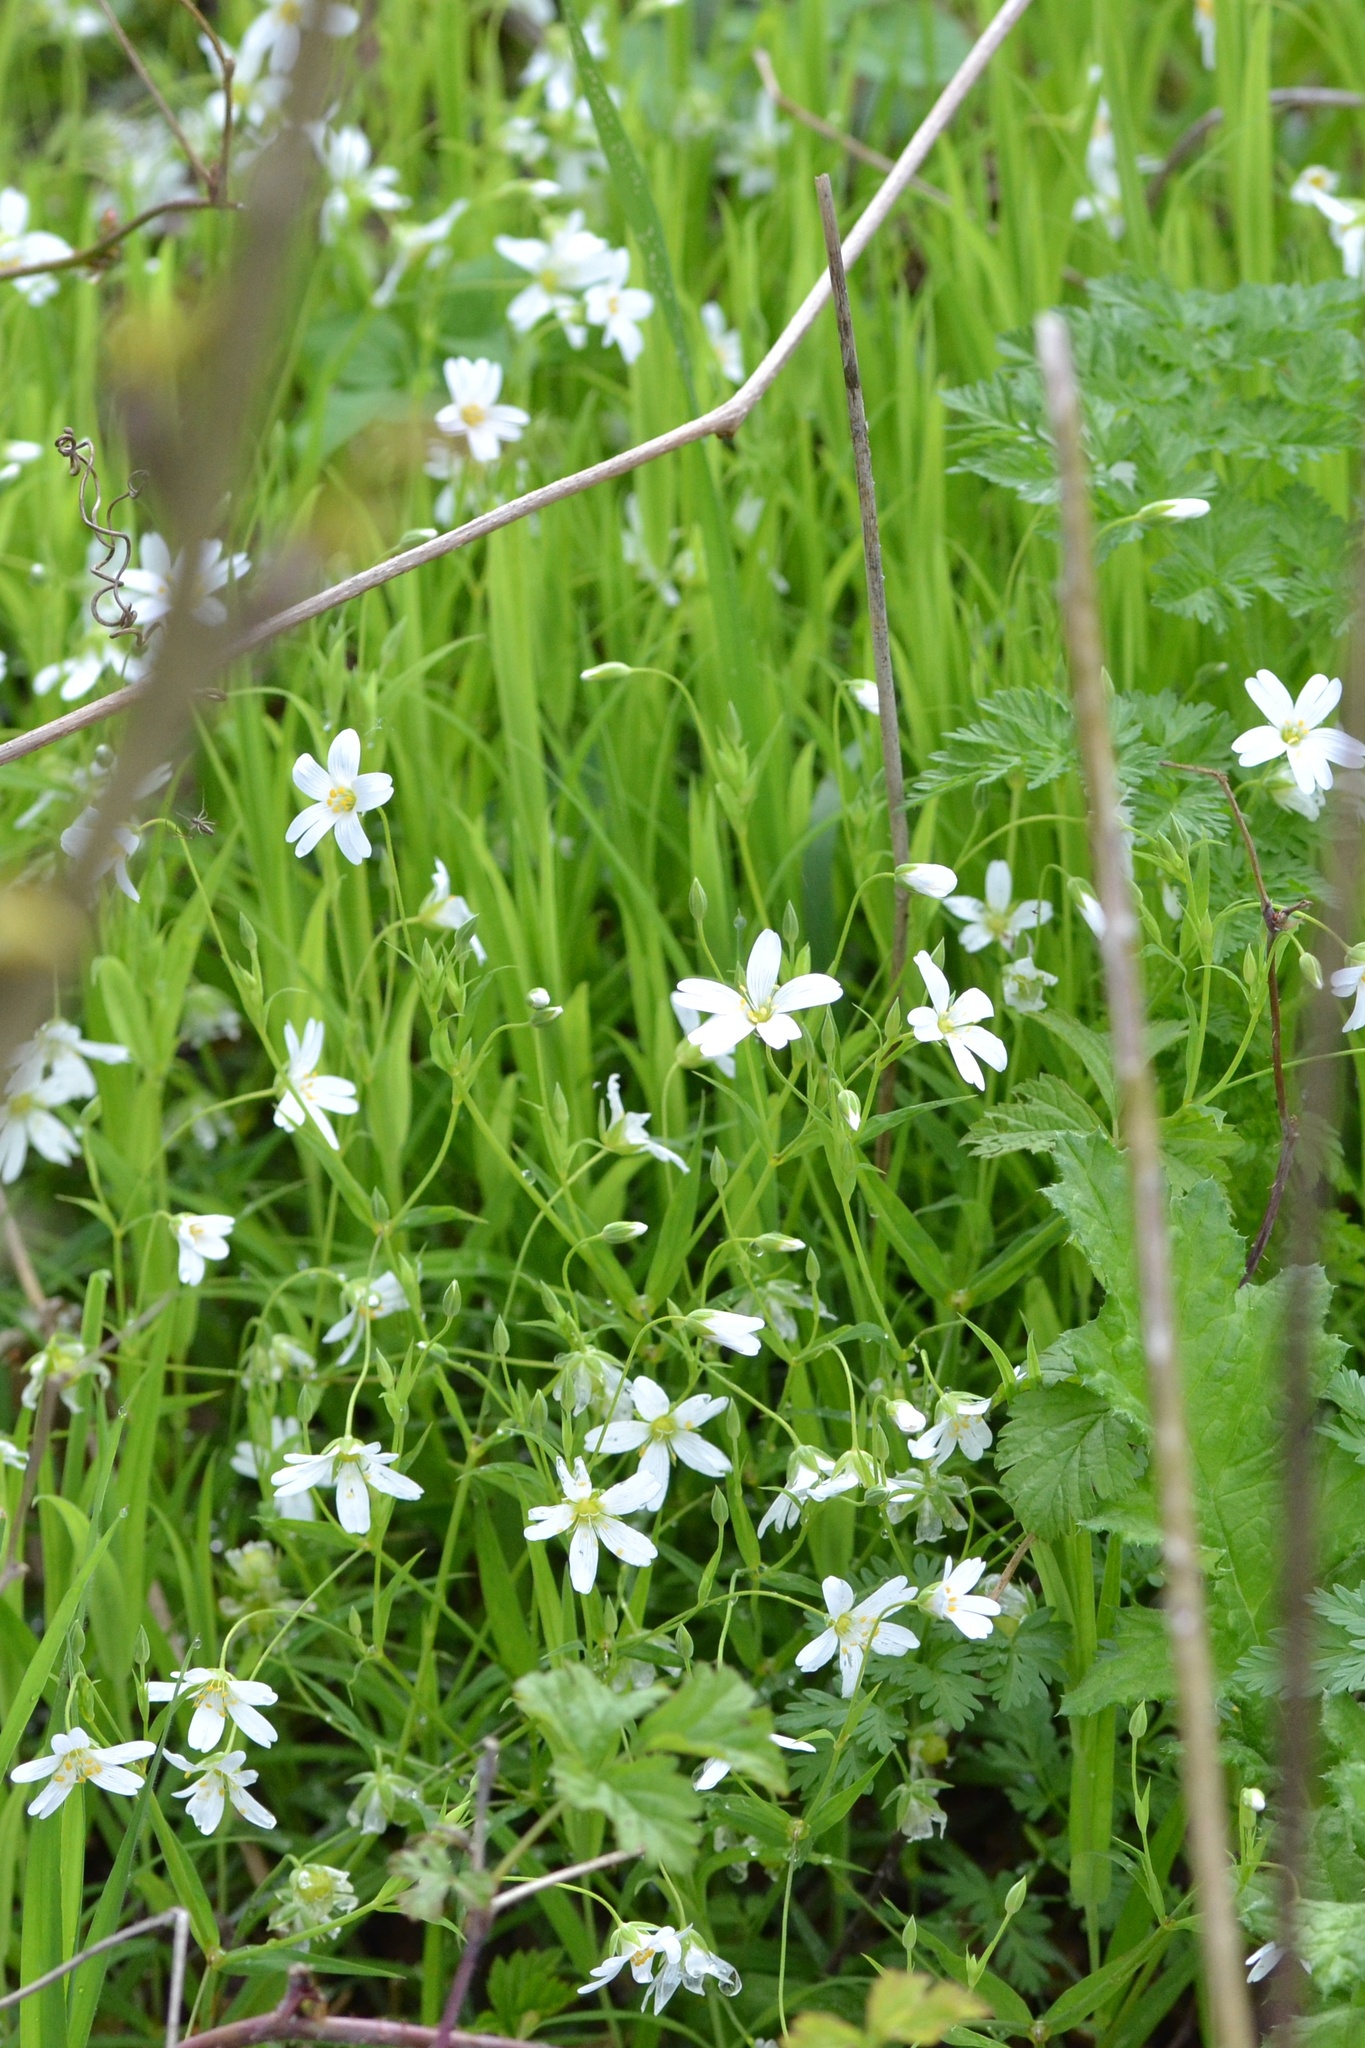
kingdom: Plantae
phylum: Tracheophyta
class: Magnoliopsida
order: Caryophyllales
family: Caryophyllaceae
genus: Rabelera
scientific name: Rabelera holostea
